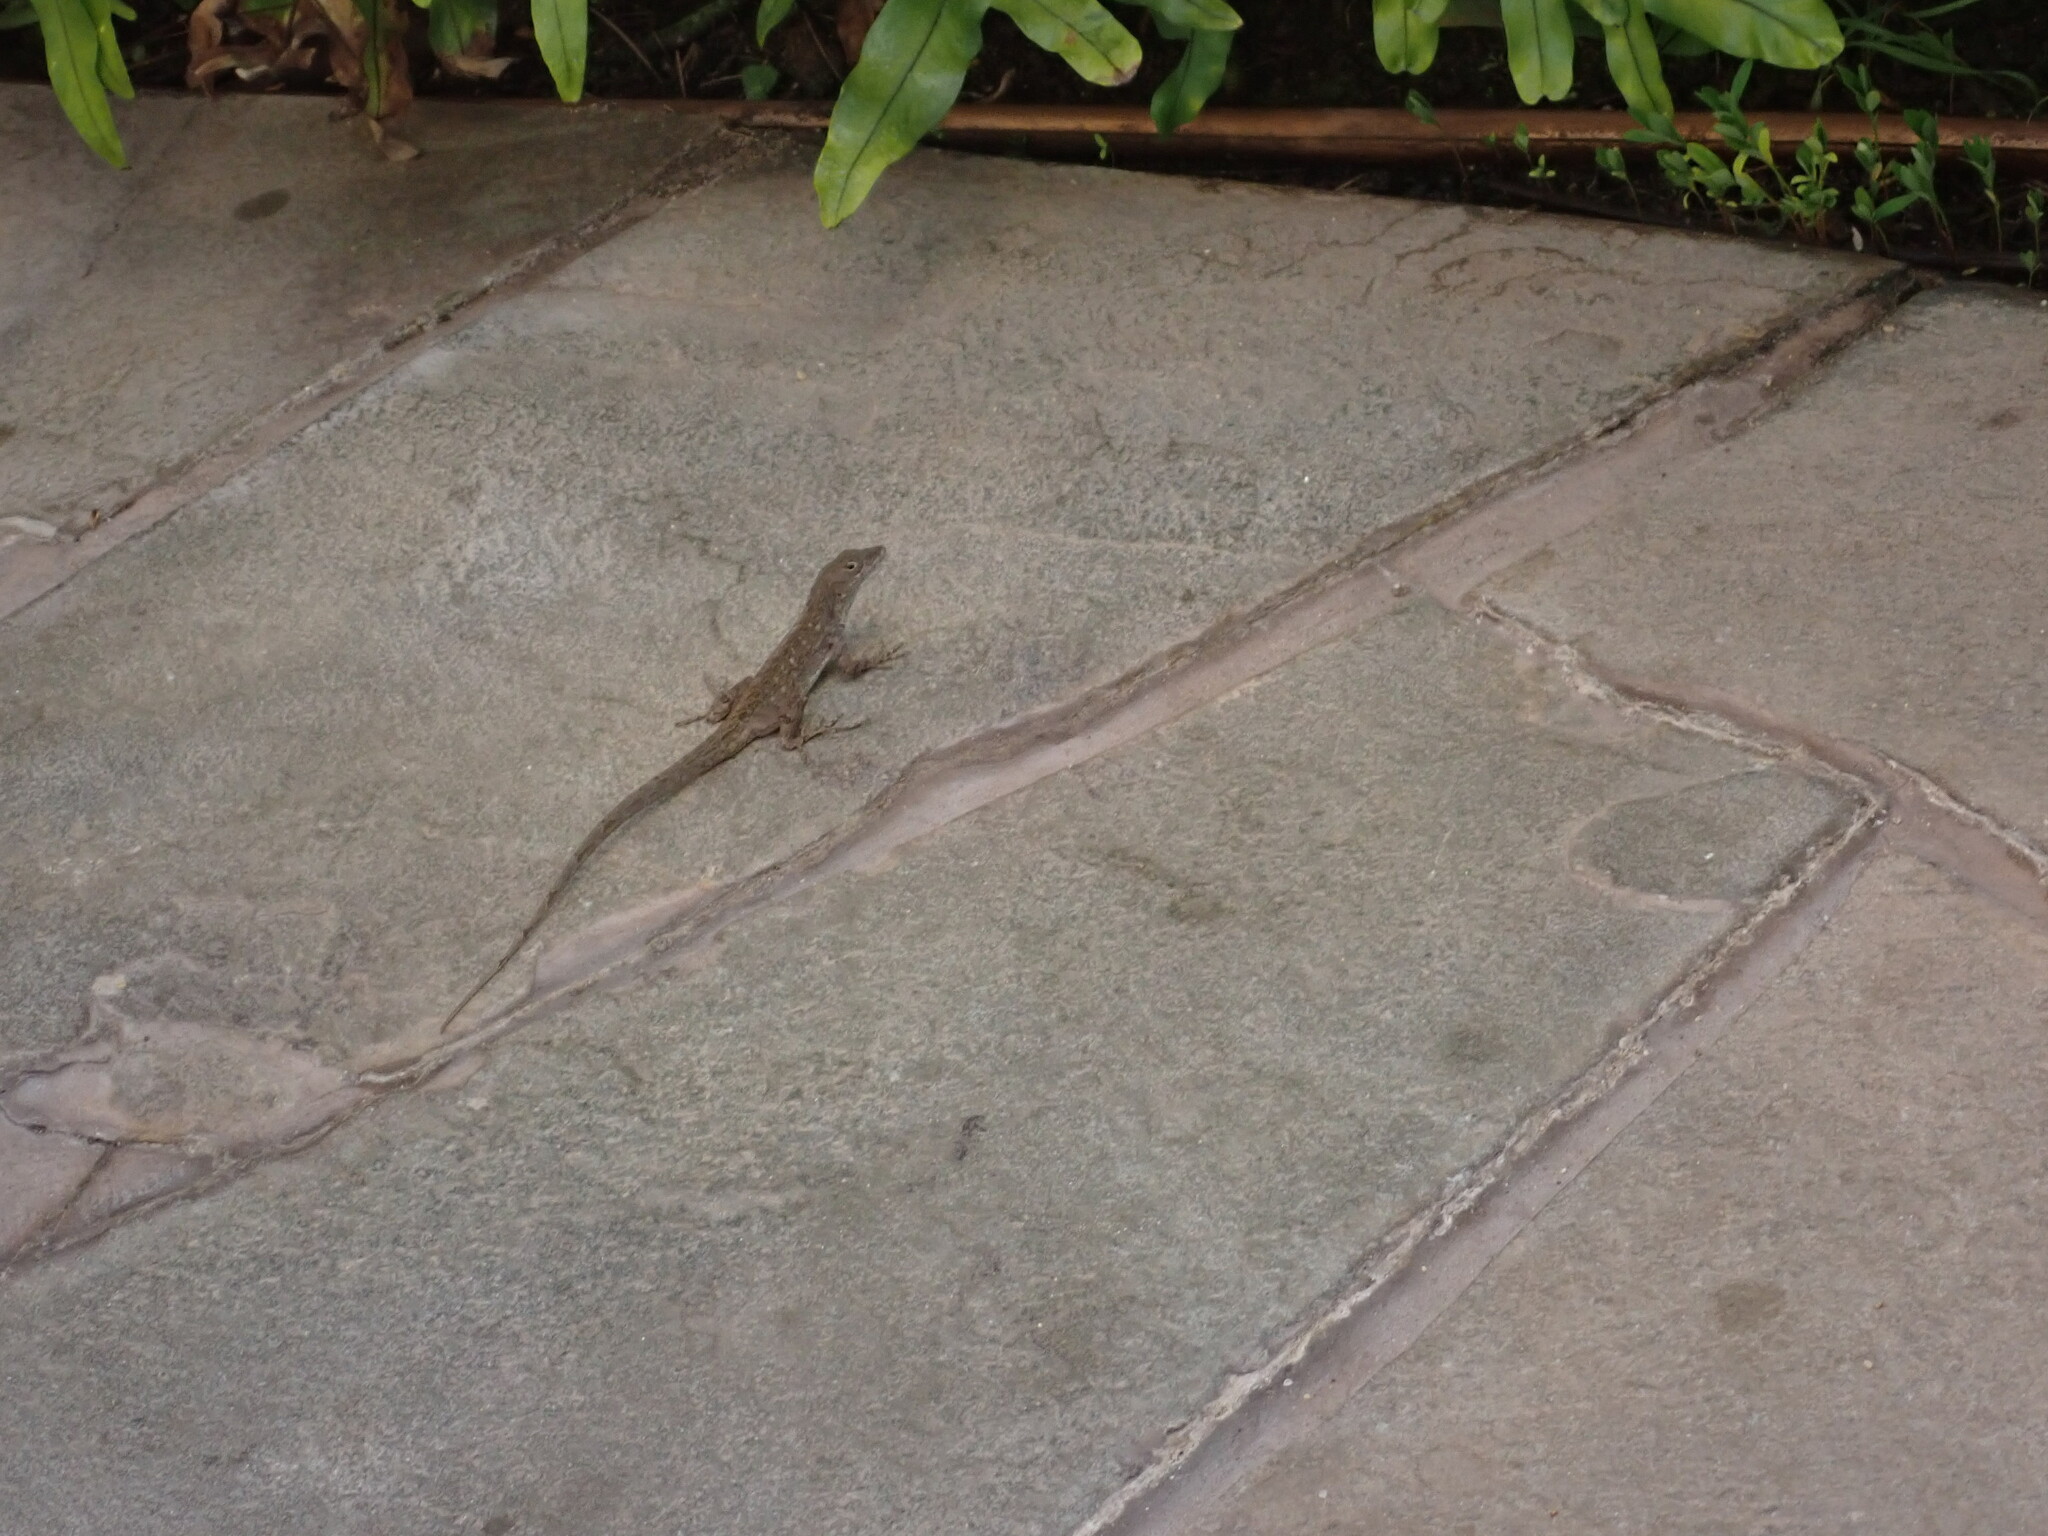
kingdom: Animalia
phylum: Chordata
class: Squamata
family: Dactyloidae
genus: Anolis
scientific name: Anolis sagrei
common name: Brown anole
